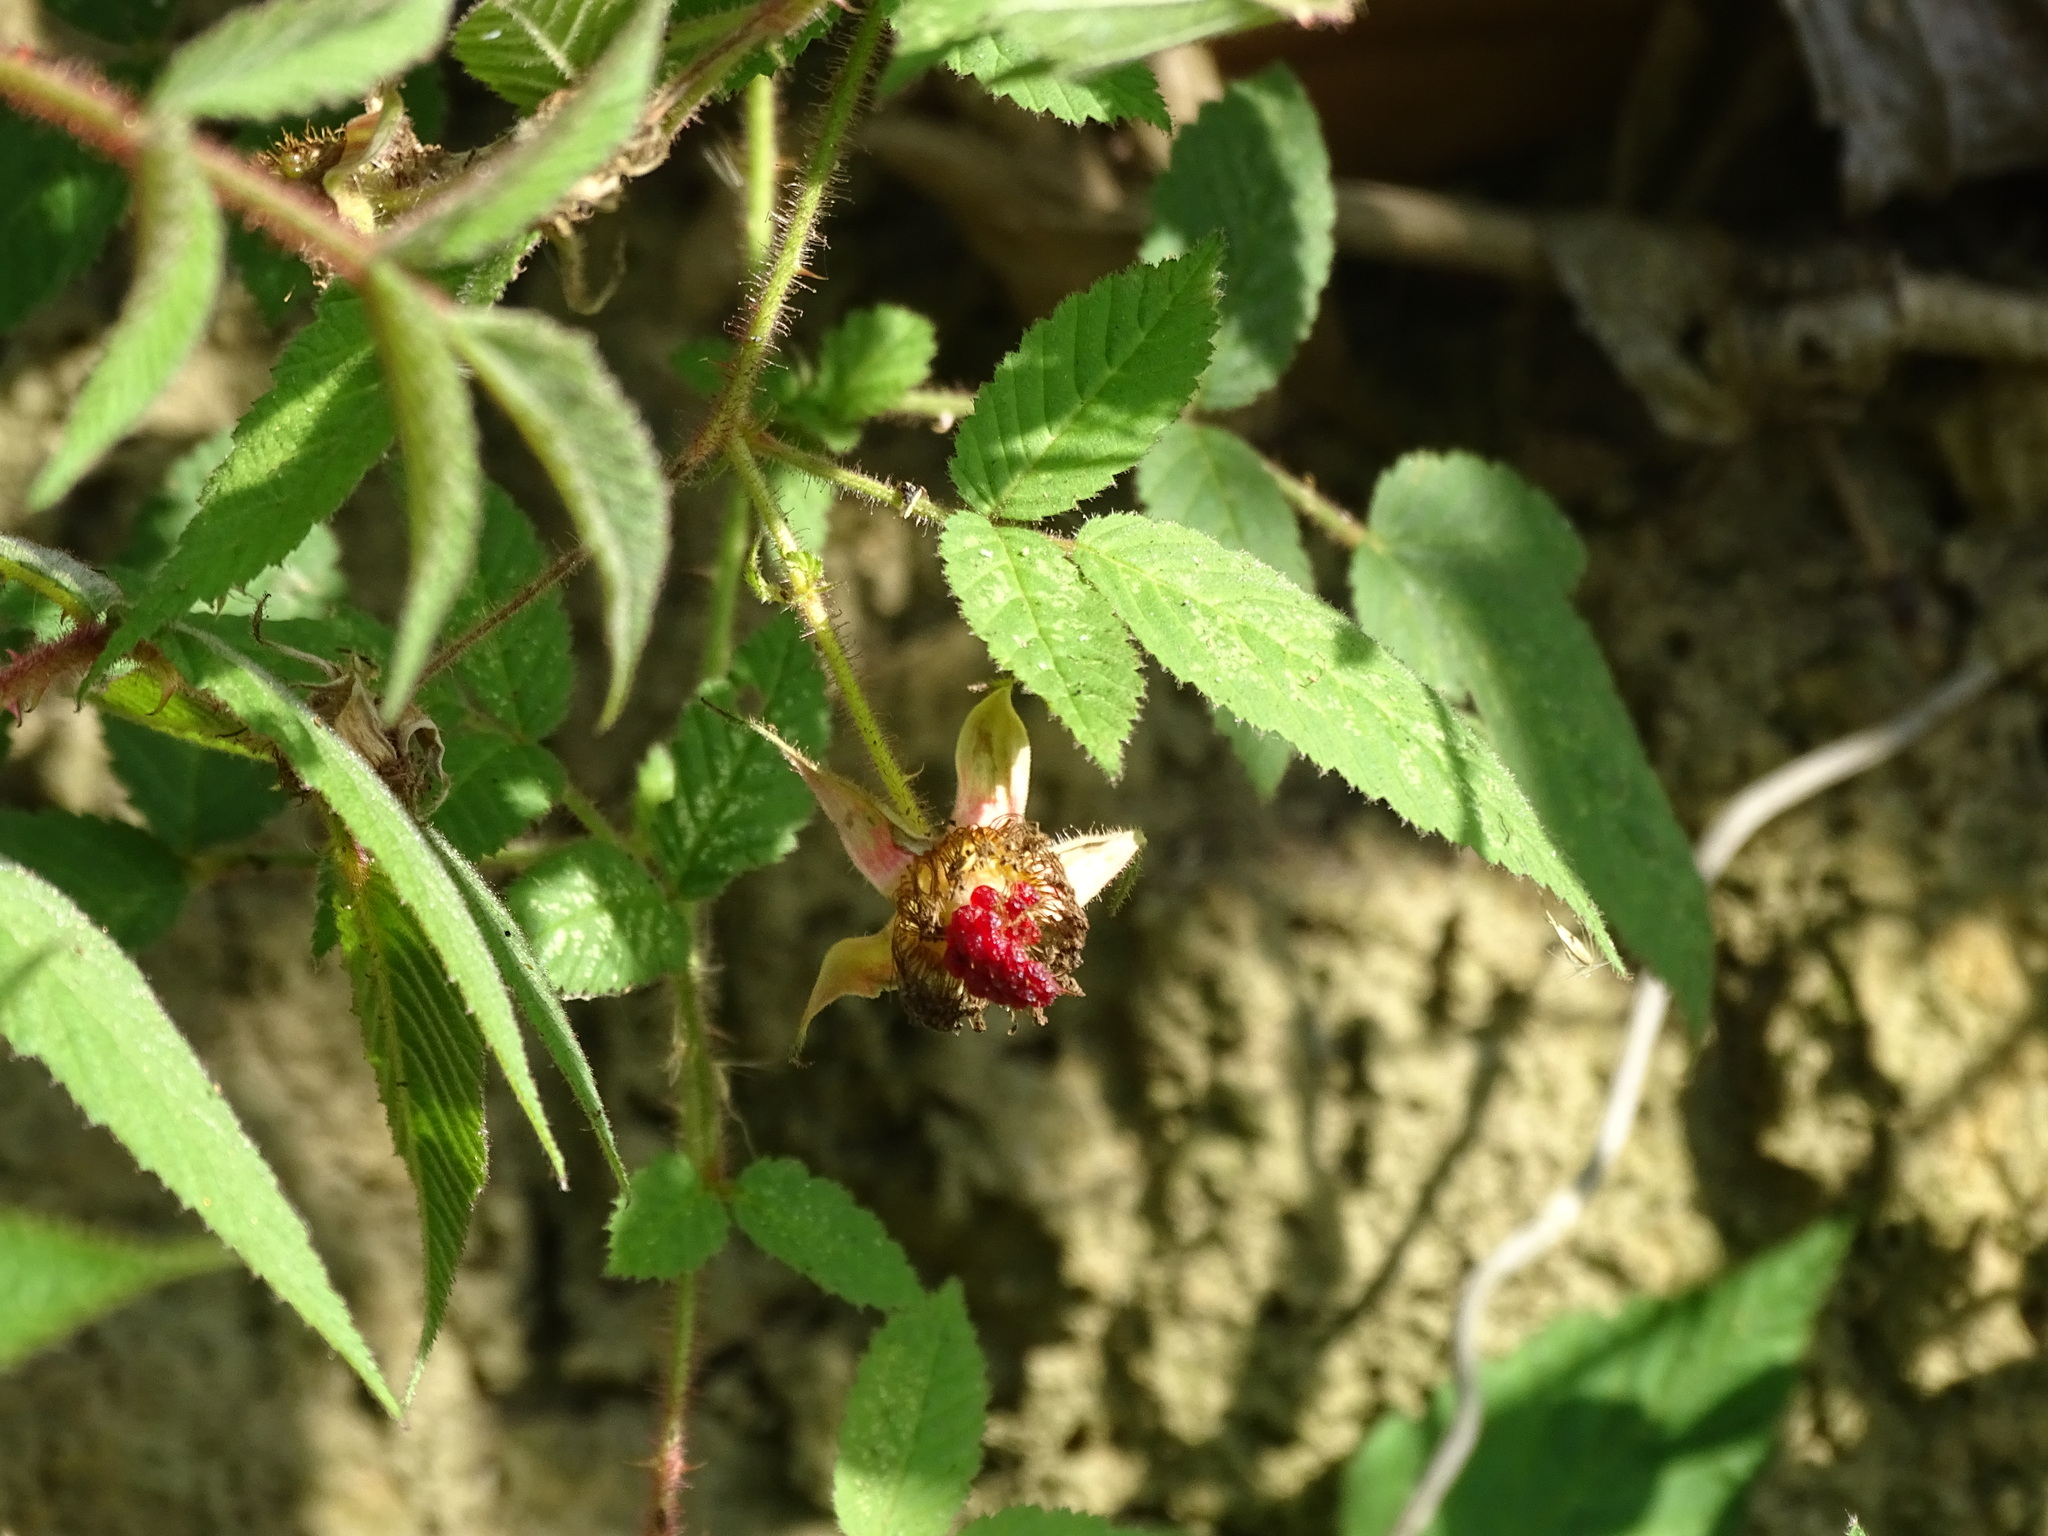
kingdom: Plantae
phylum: Tracheophyta
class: Magnoliopsida
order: Rosales
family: Rosaceae
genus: Rubus
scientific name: Rubus croceacanthus
